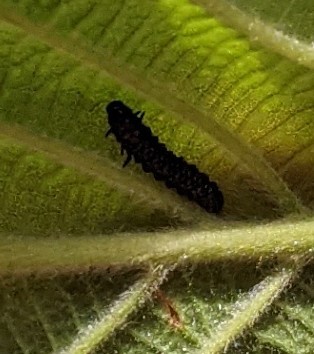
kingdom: Animalia
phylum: Arthropoda
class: Insecta
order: Coleoptera
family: Chrysomelidae
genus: Altica
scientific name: Altica ambiens
